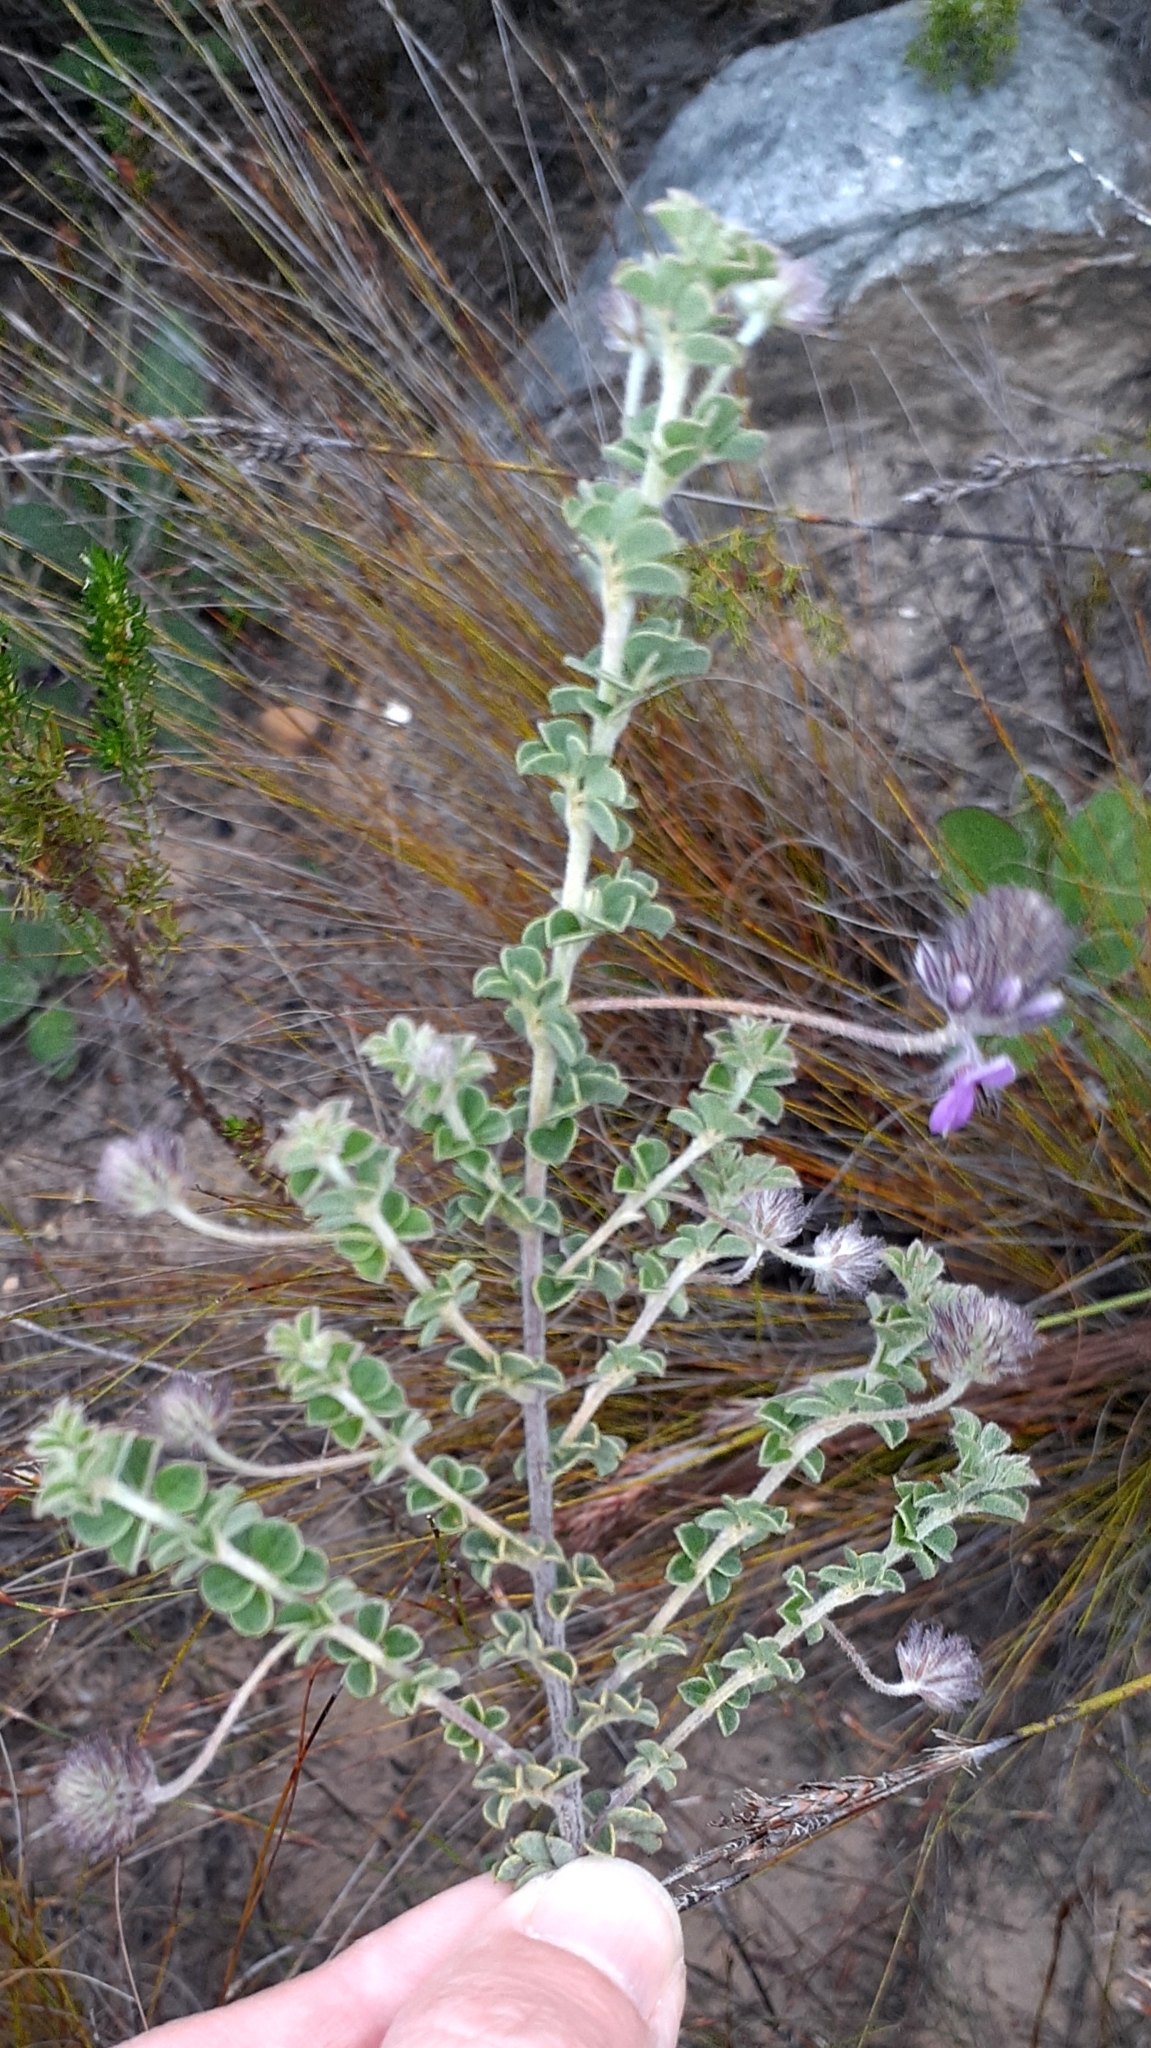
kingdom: Plantae
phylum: Tracheophyta
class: Magnoliopsida
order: Fabales
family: Fabaceae
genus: Indigofera
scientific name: Indigofera alopecuroides
